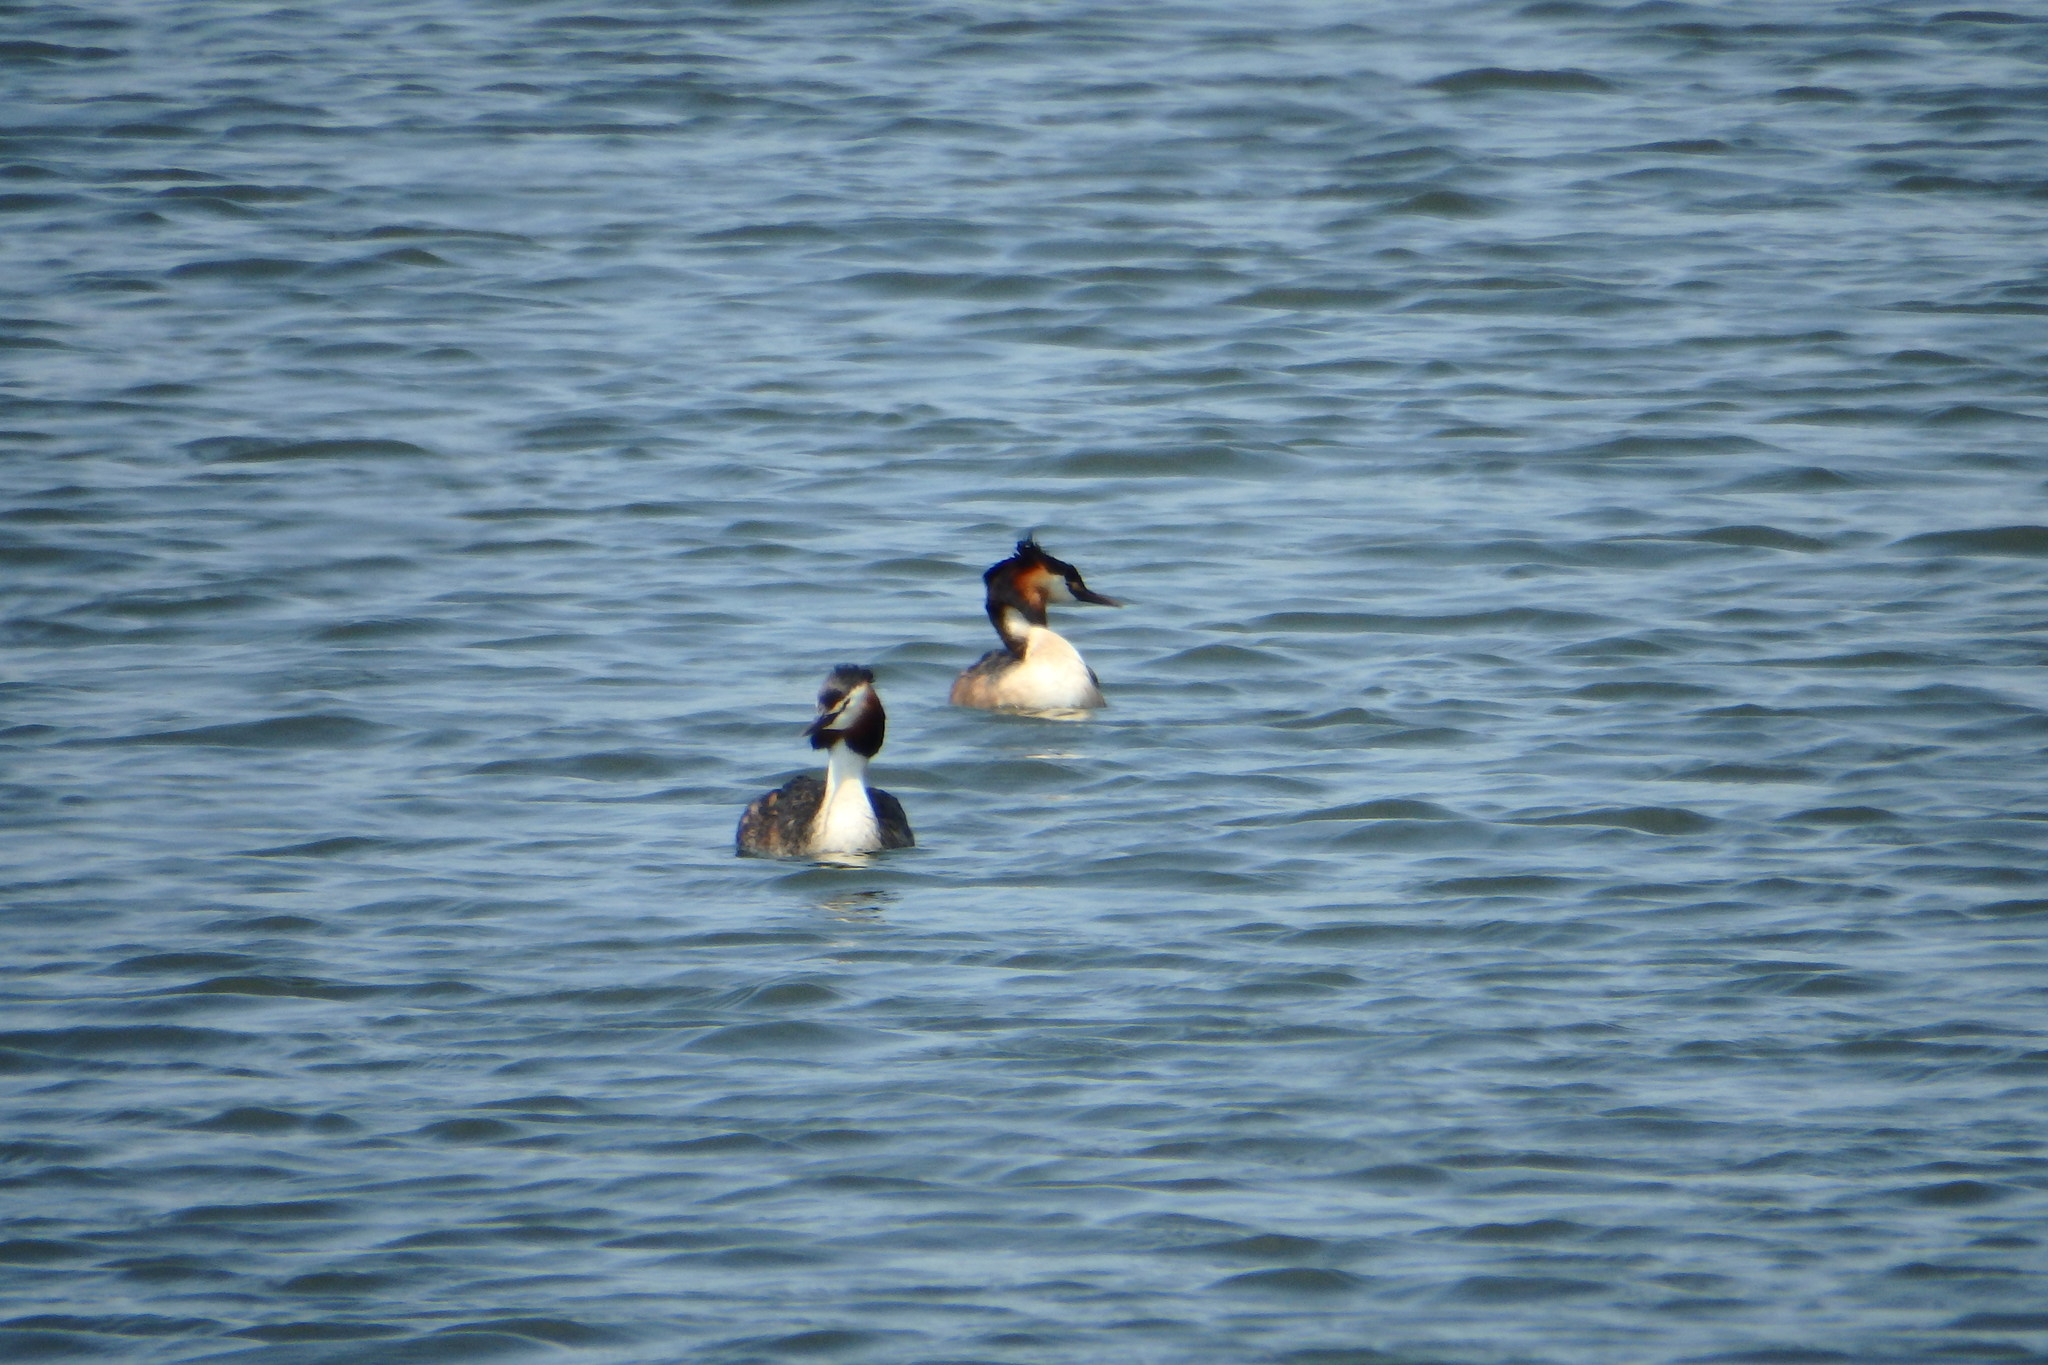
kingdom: Animalia
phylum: Chordata
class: Aves
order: Podicipediformes
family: Podicipedidae
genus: Podiceps
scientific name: Podiceps cristatus
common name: Great crested grebe
